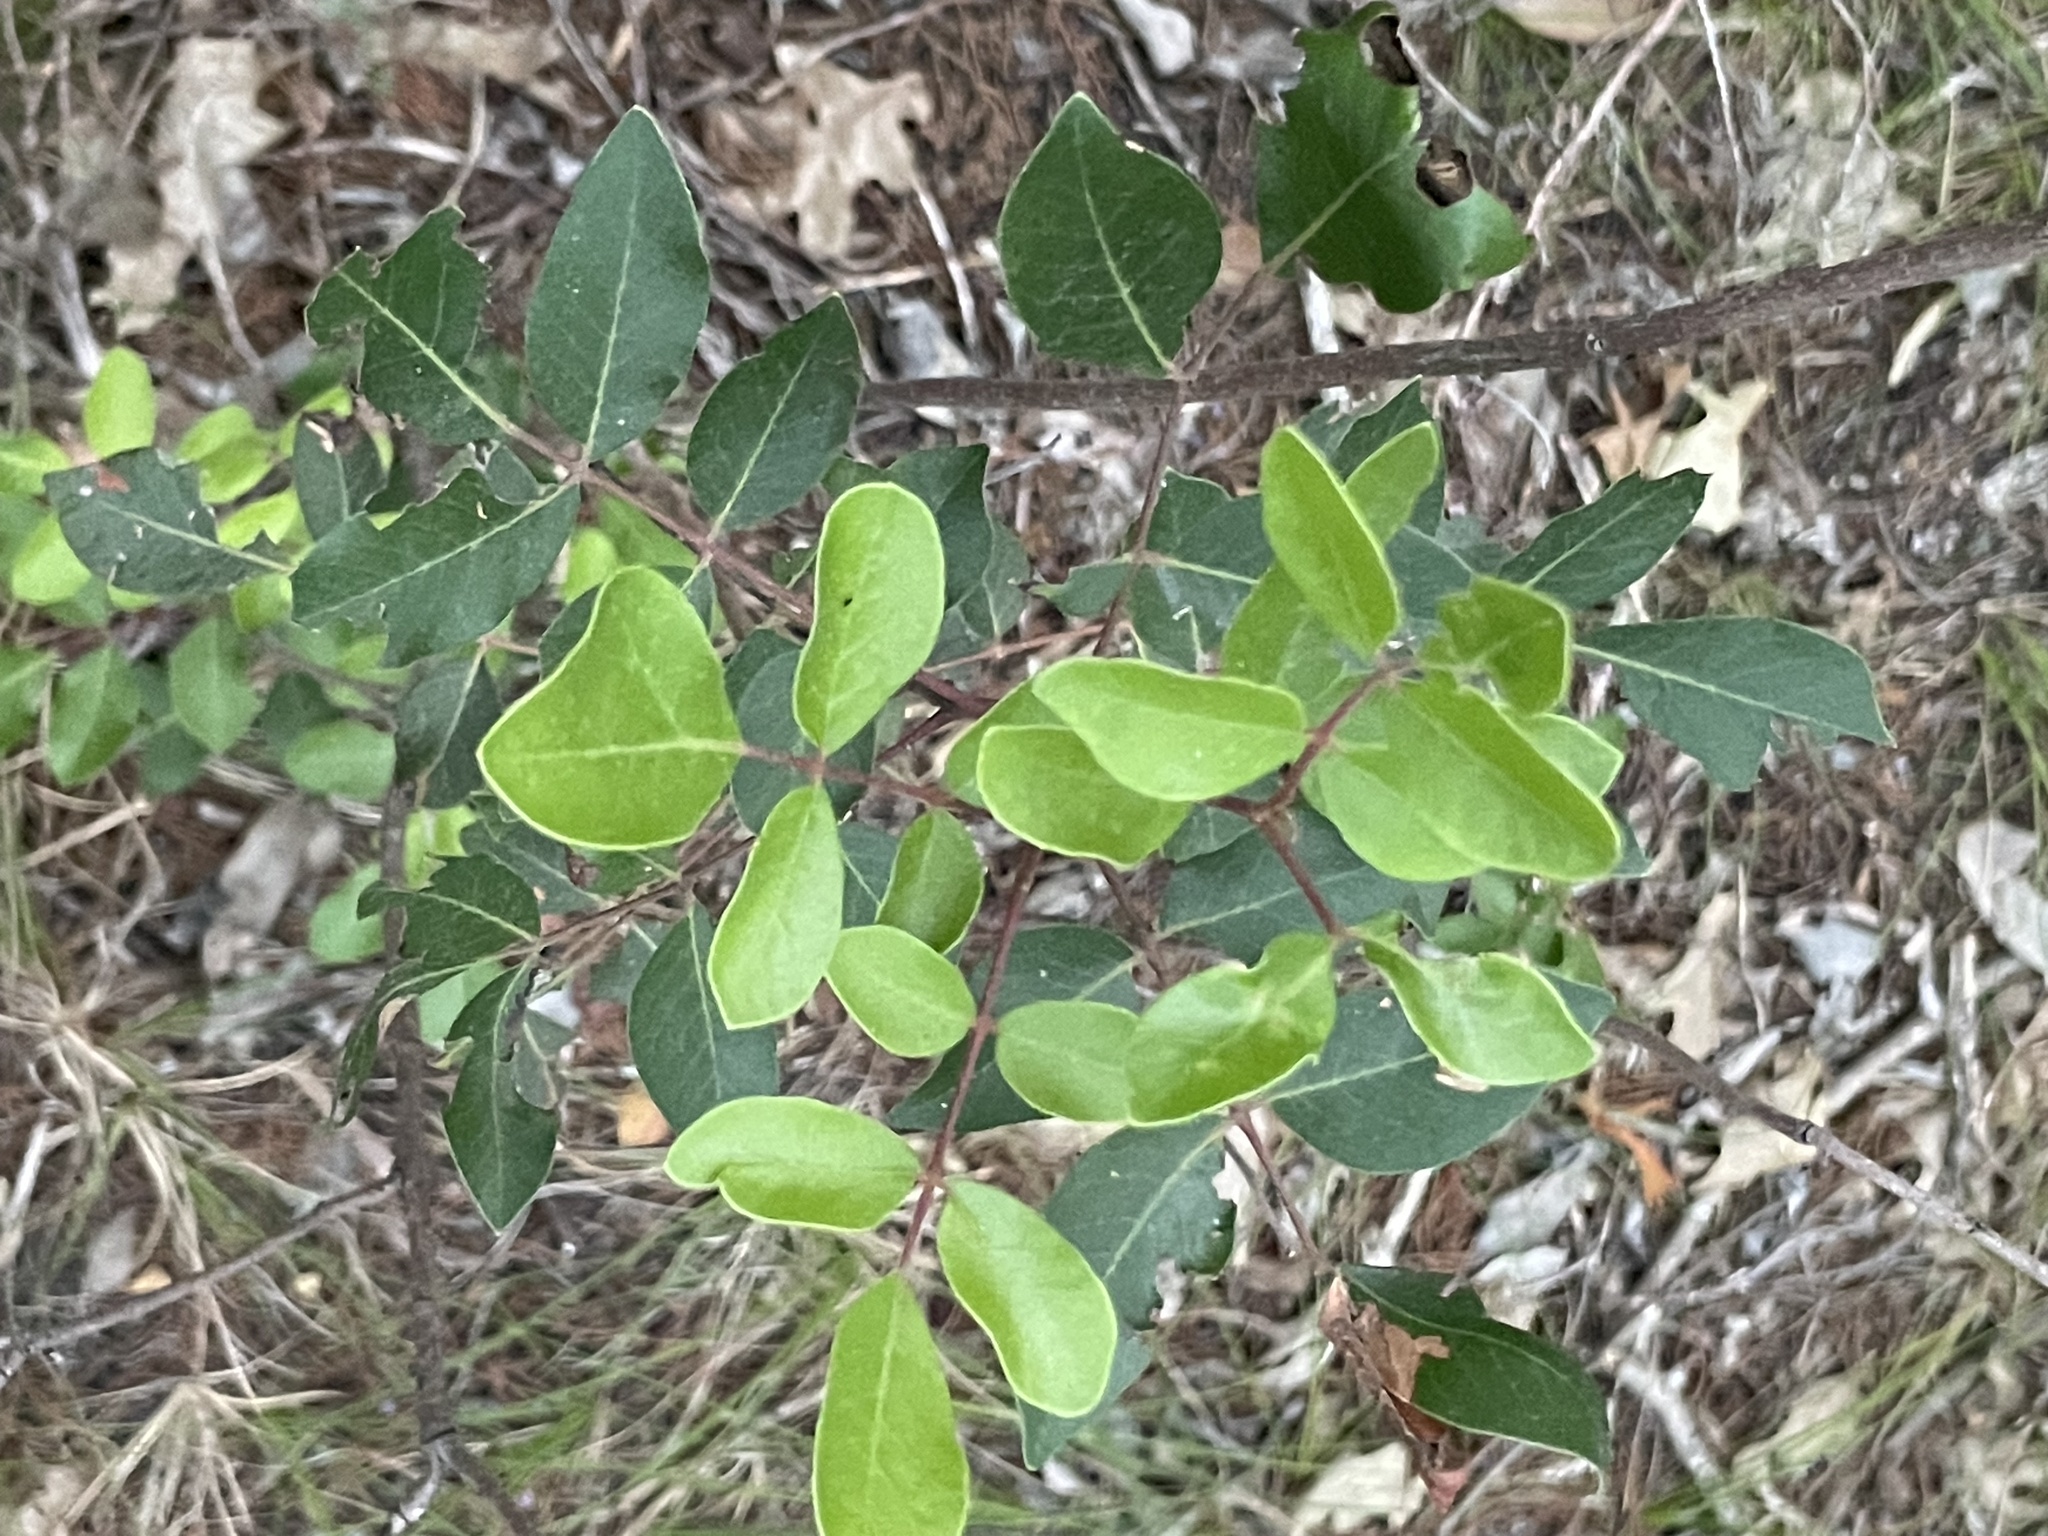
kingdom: Plantae
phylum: Tracheophyta
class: Magnoliopsida
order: Sapindales
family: Anacardiaceae
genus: Rhus
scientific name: Rhus virens
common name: Evergreen sumac
